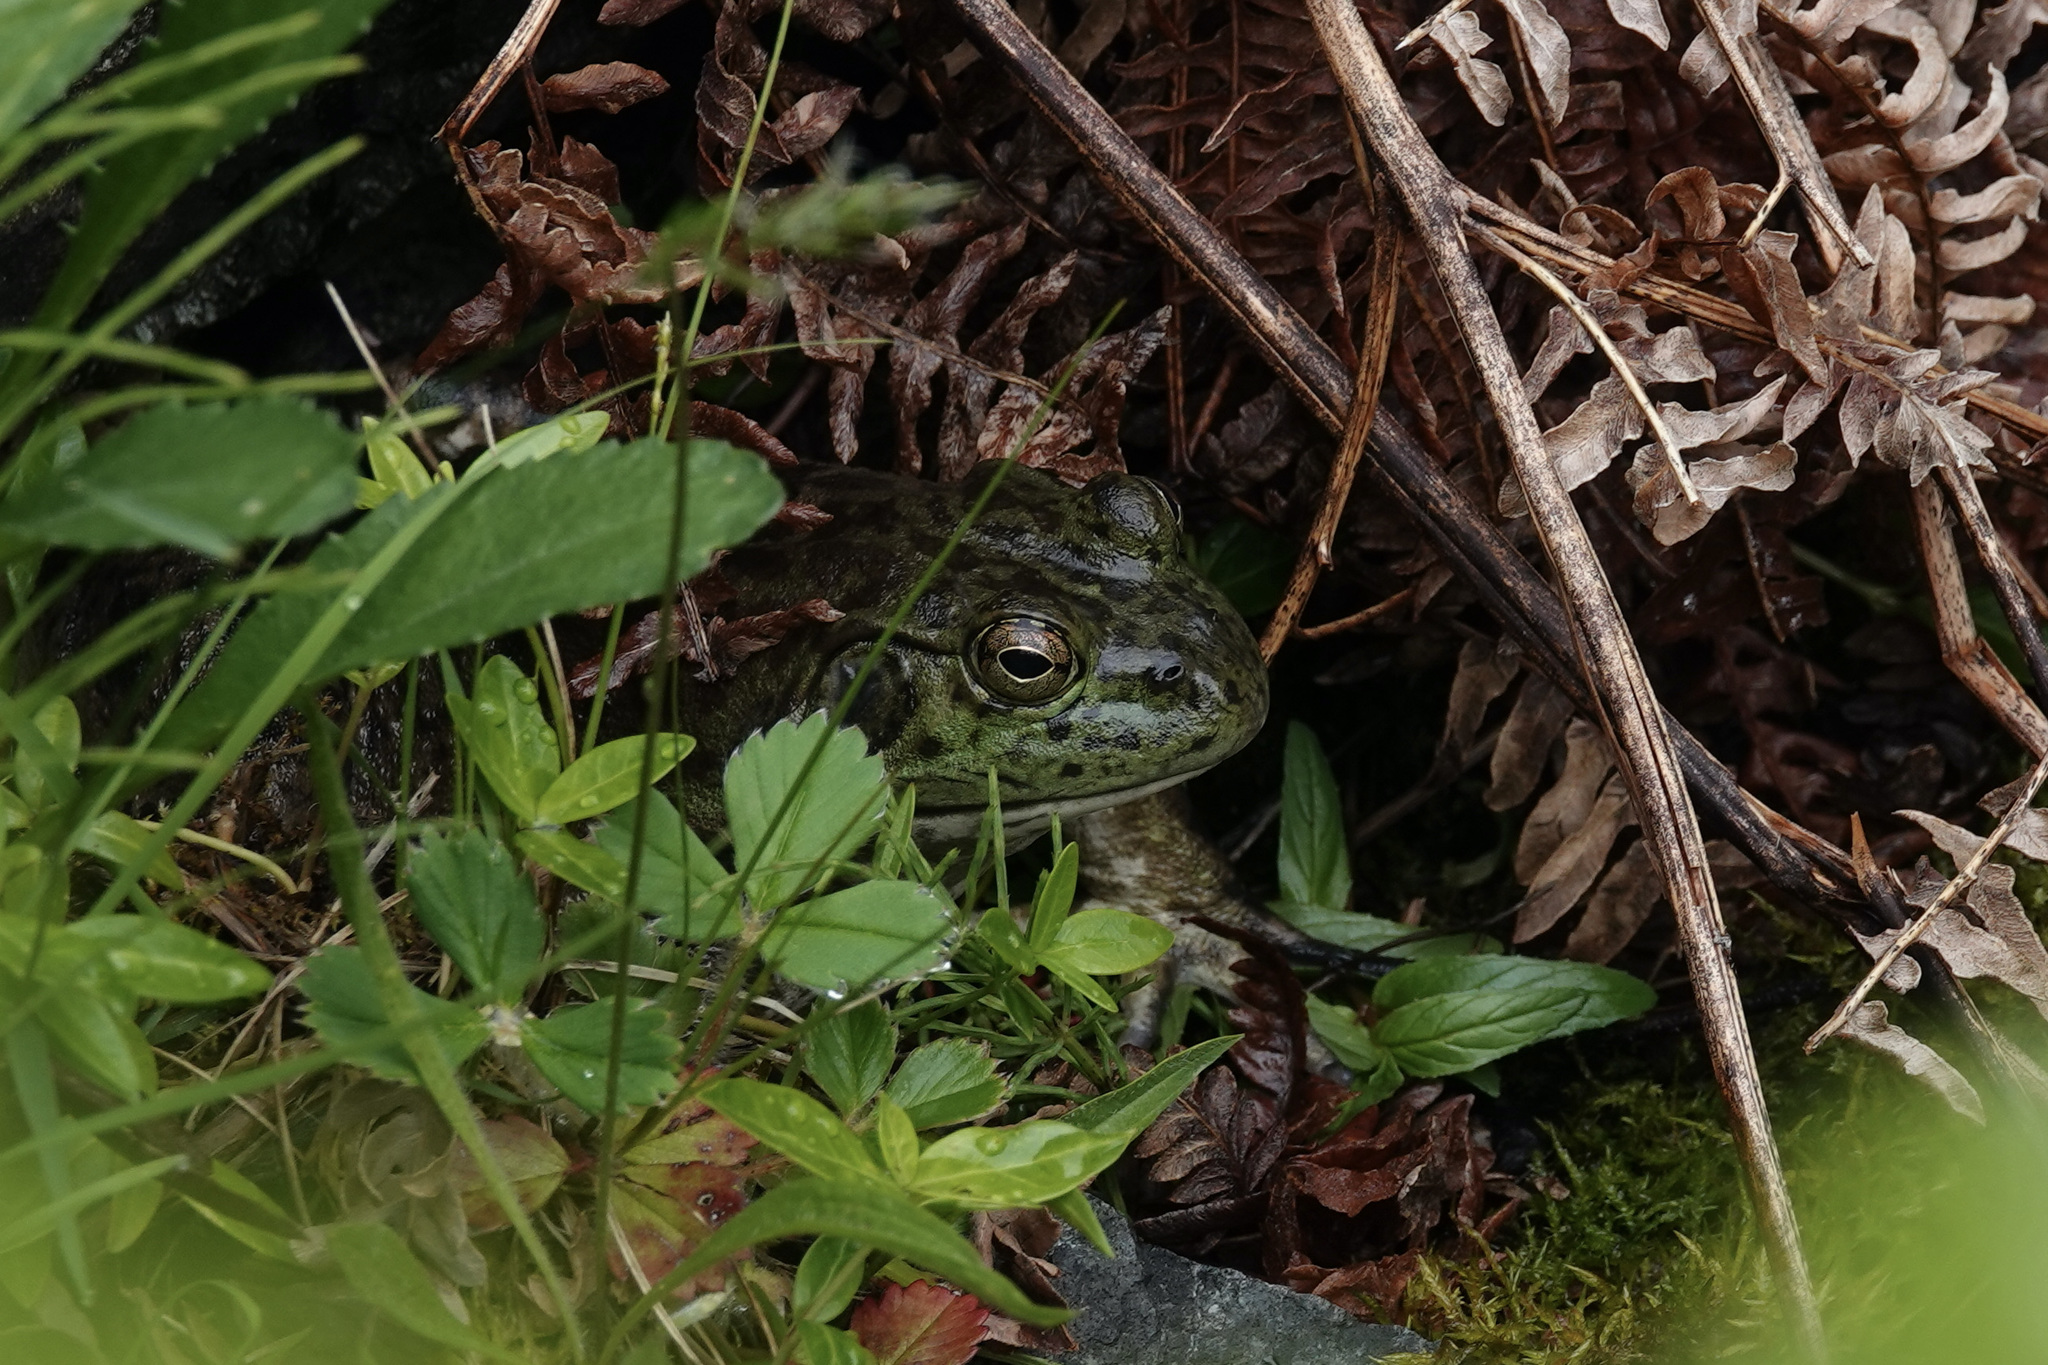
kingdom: Animalia
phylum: Chordata
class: Amphibia
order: Anura
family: Ranidae
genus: Lithobates
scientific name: Lithobates catesbeianus
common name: American bullfrog
